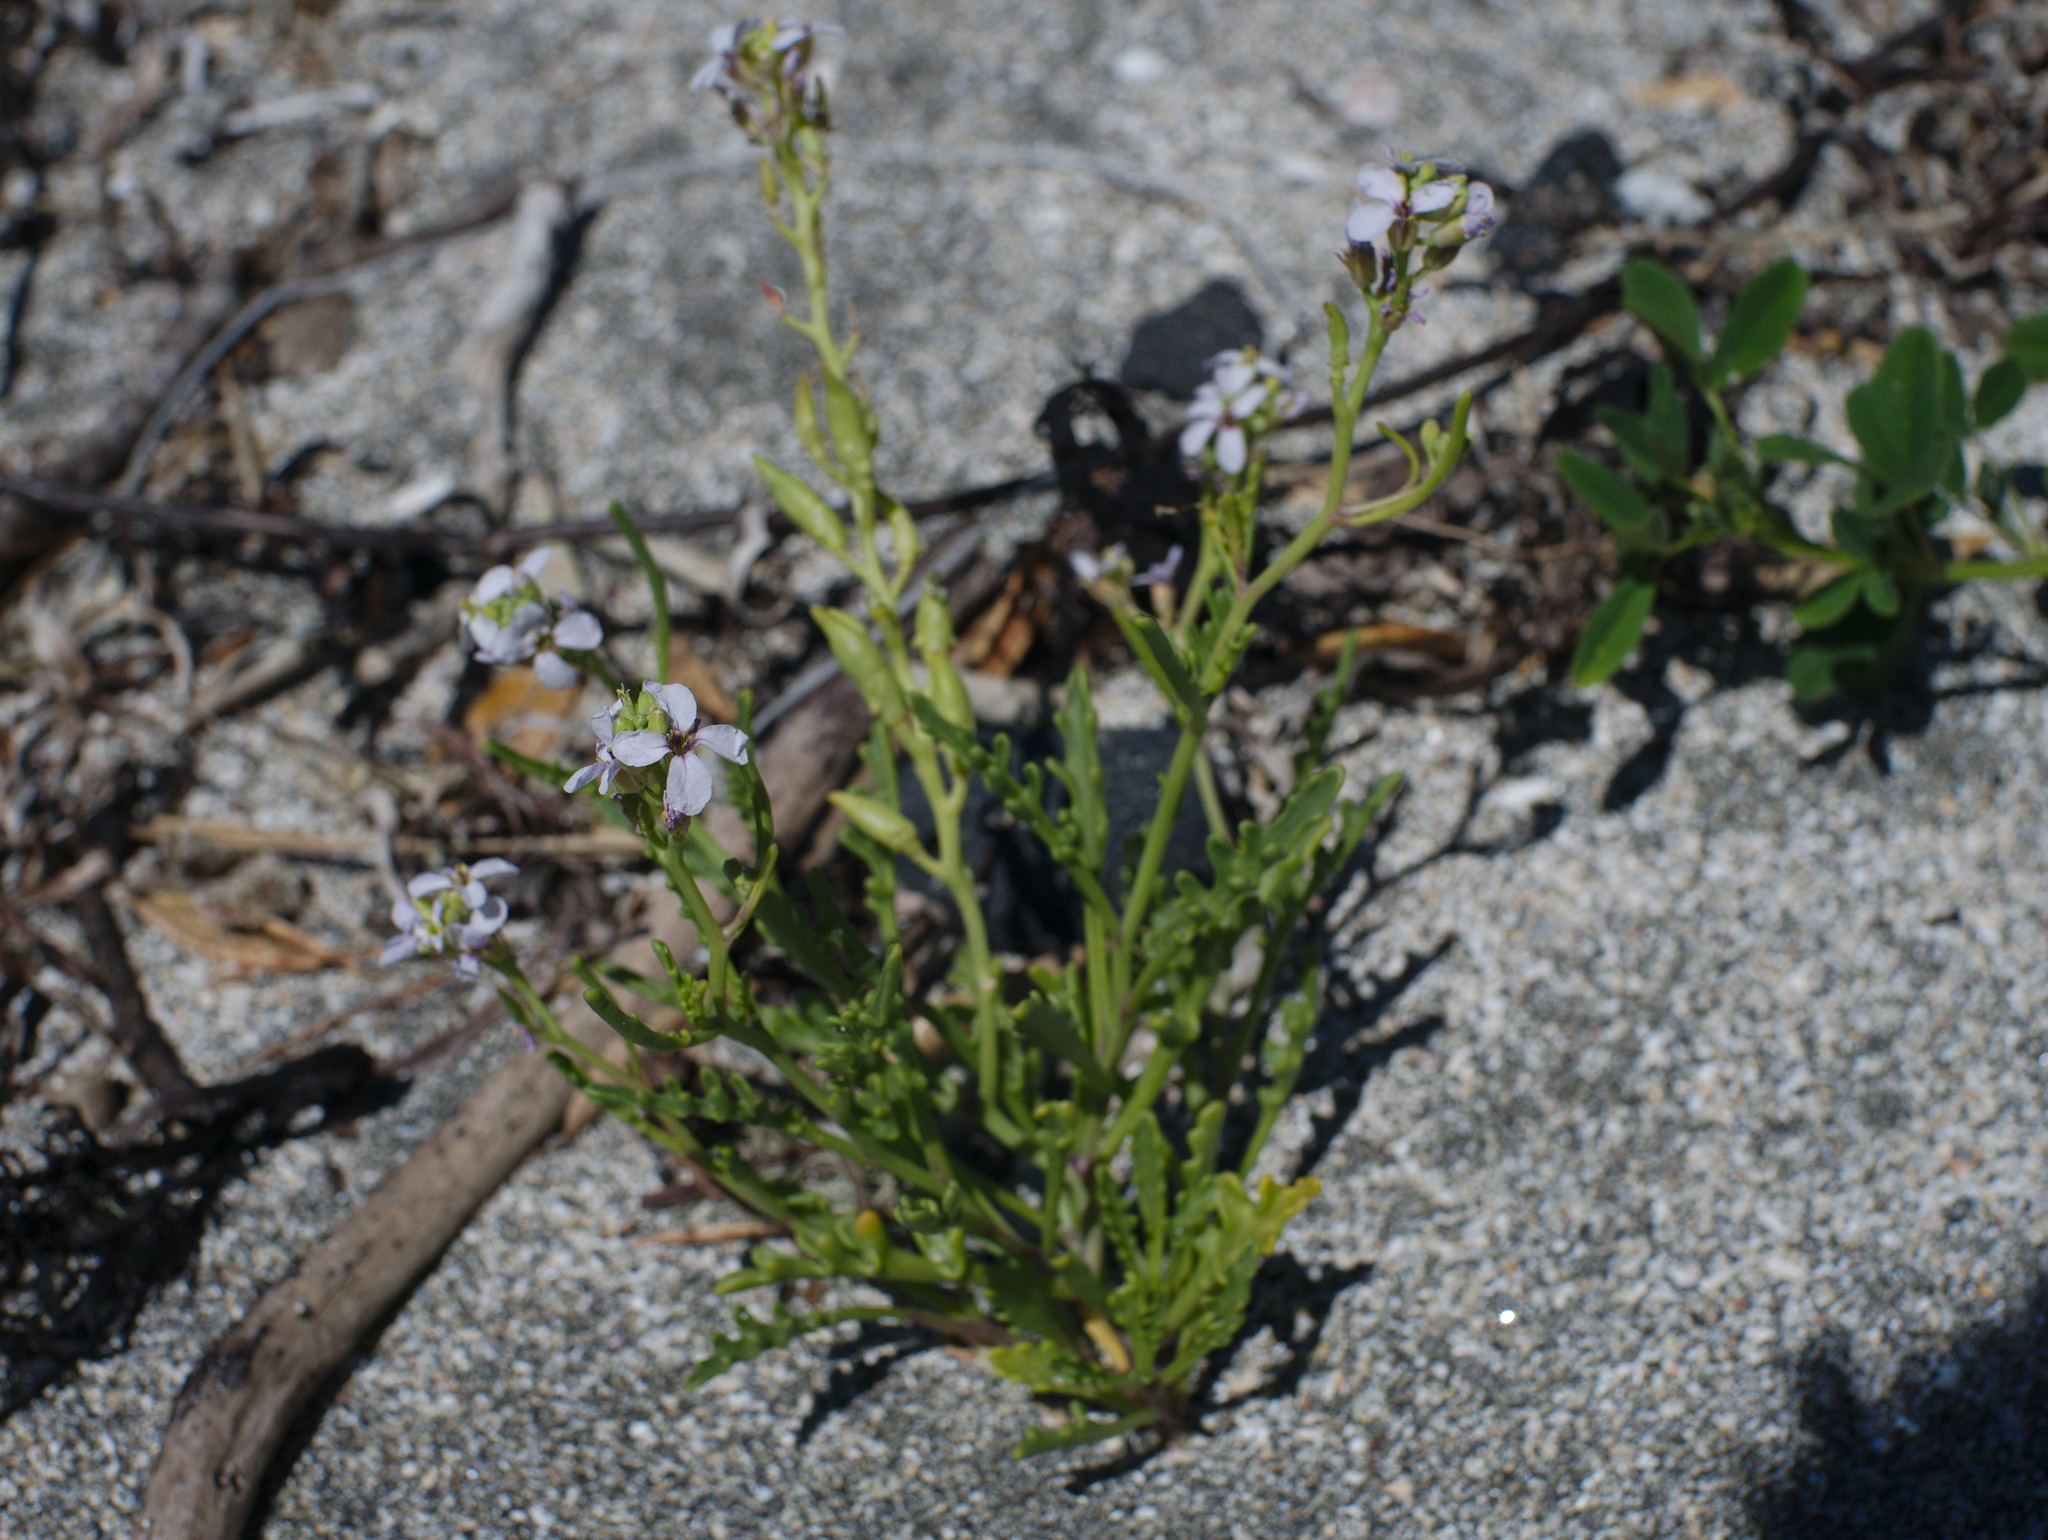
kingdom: Plantae
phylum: Tracheophyta
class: Magnoliopsida
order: Brassicales
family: Brassicaceae
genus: Cakile
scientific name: Cakile maritima
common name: Sea rocket
